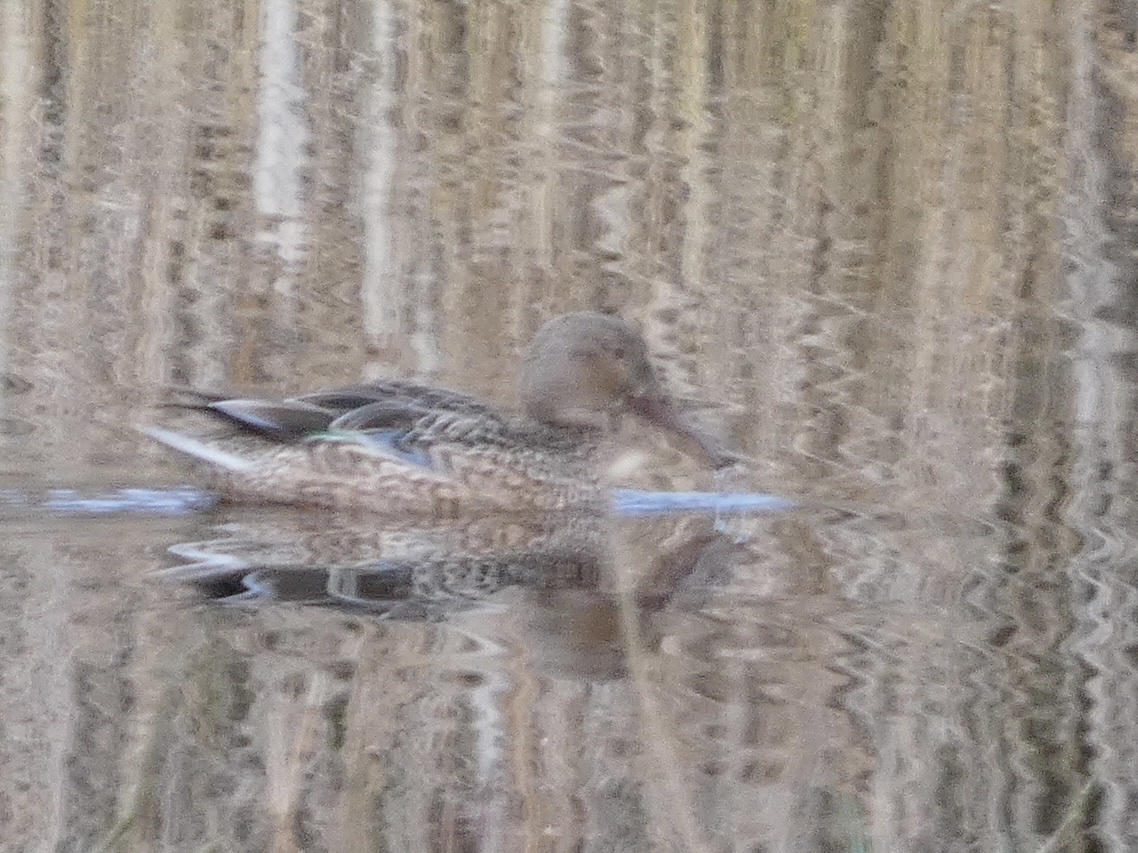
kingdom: Animalia
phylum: Chordata
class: Aves
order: Anseriformes
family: Anatidae
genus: Spatula
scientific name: Spatula clypeata
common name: Northern shoveler
